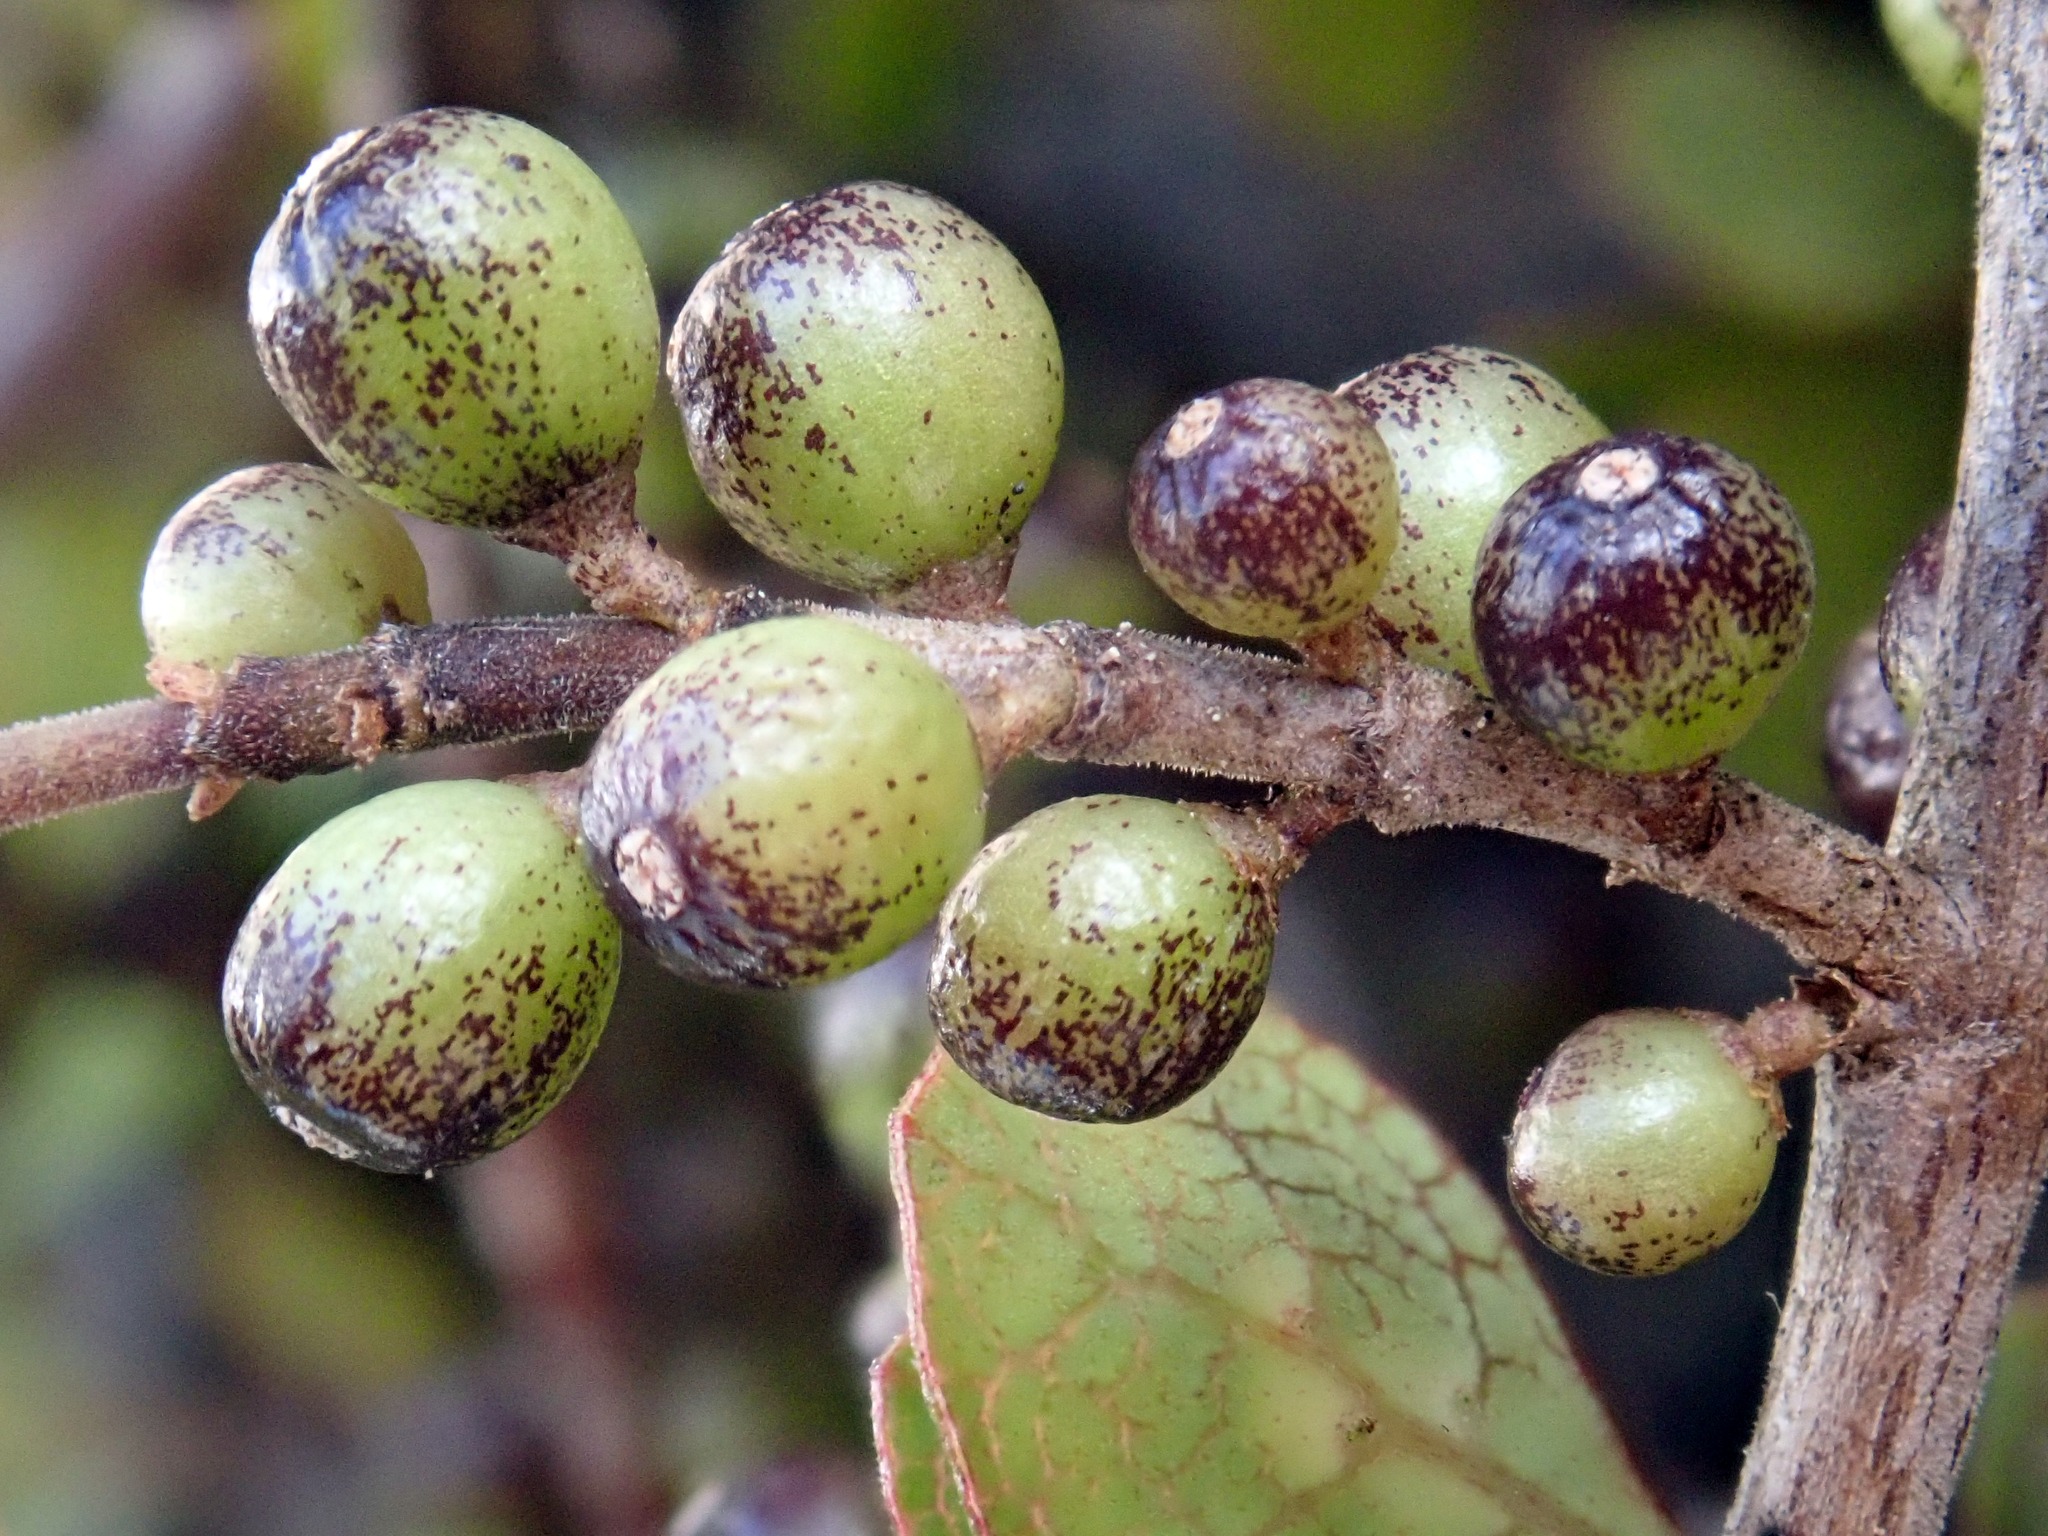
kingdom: Plantae
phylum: Tracheophyta
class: Magnoliopsida
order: Gentianales
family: Rubiaceae
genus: Coprosma
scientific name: Coprosma tenuicaulis
